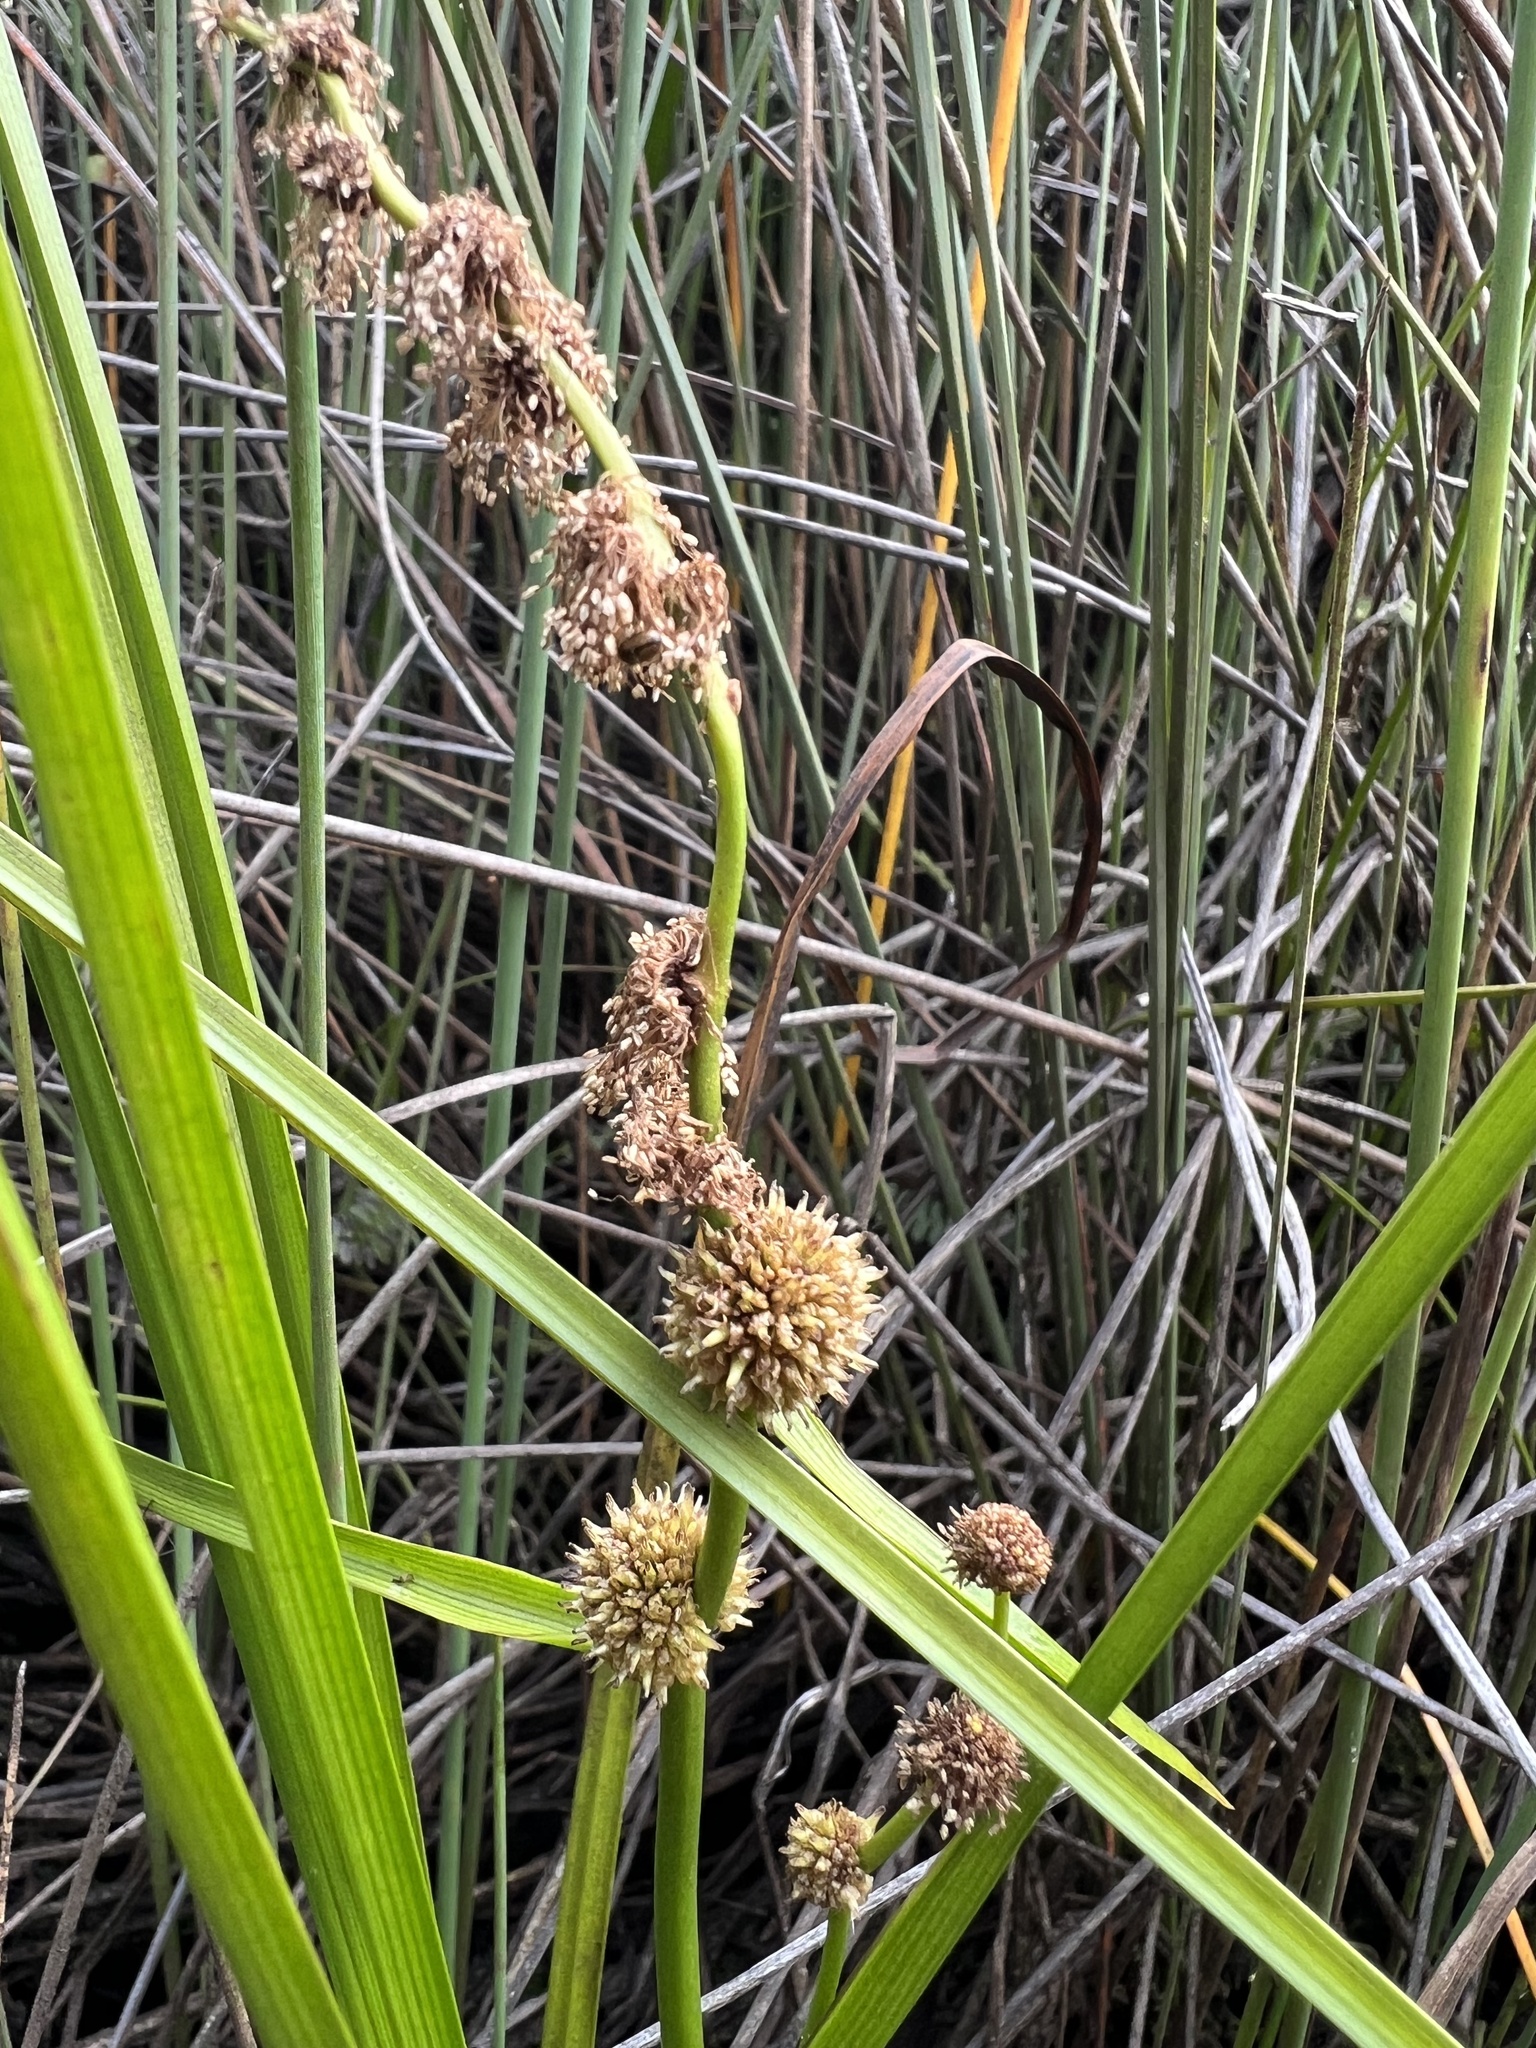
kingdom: Plantae
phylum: Tracheophyta
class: Liliopsida
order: Poales
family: Typhaceae
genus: Sparganium
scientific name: Sparganium subglobosum
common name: Burr­-reed
